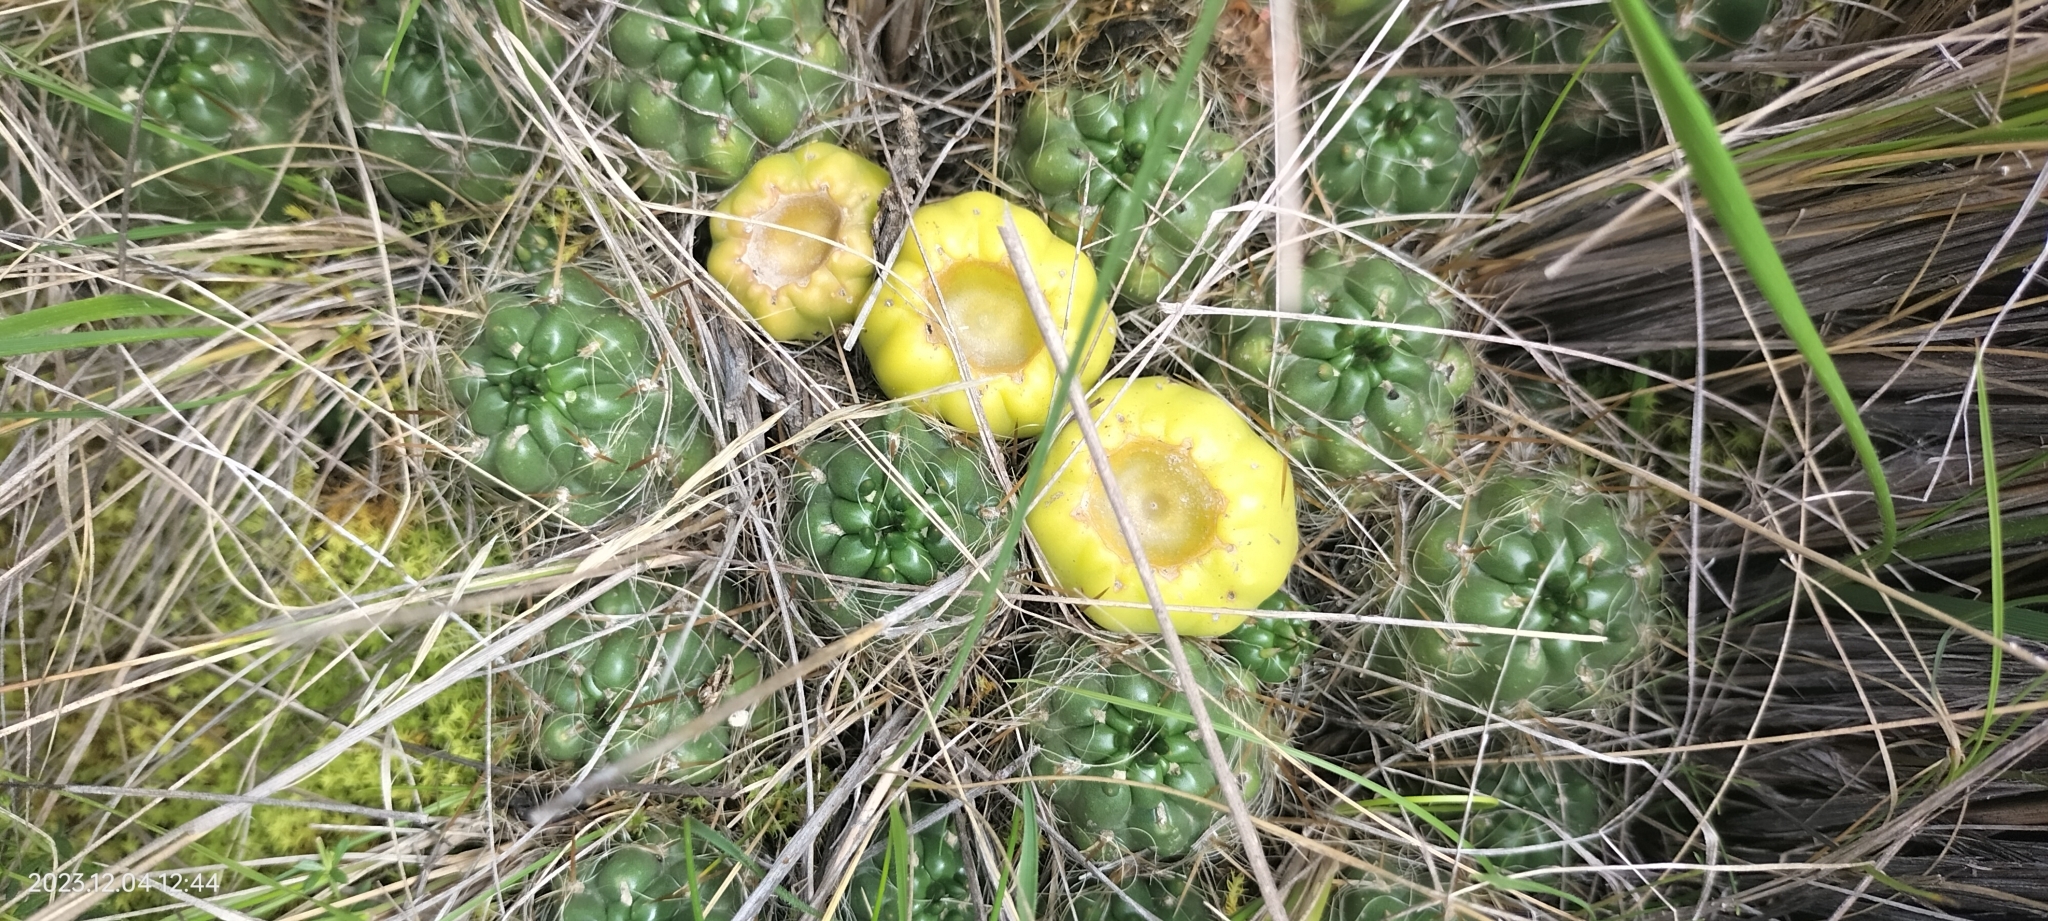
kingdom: Plantae
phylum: Tracheophyta
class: Magnoliopsida
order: Caryophyllales
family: Cactaceae
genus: Austrocylindropuntia
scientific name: Austrocylindropuntia floccosa
